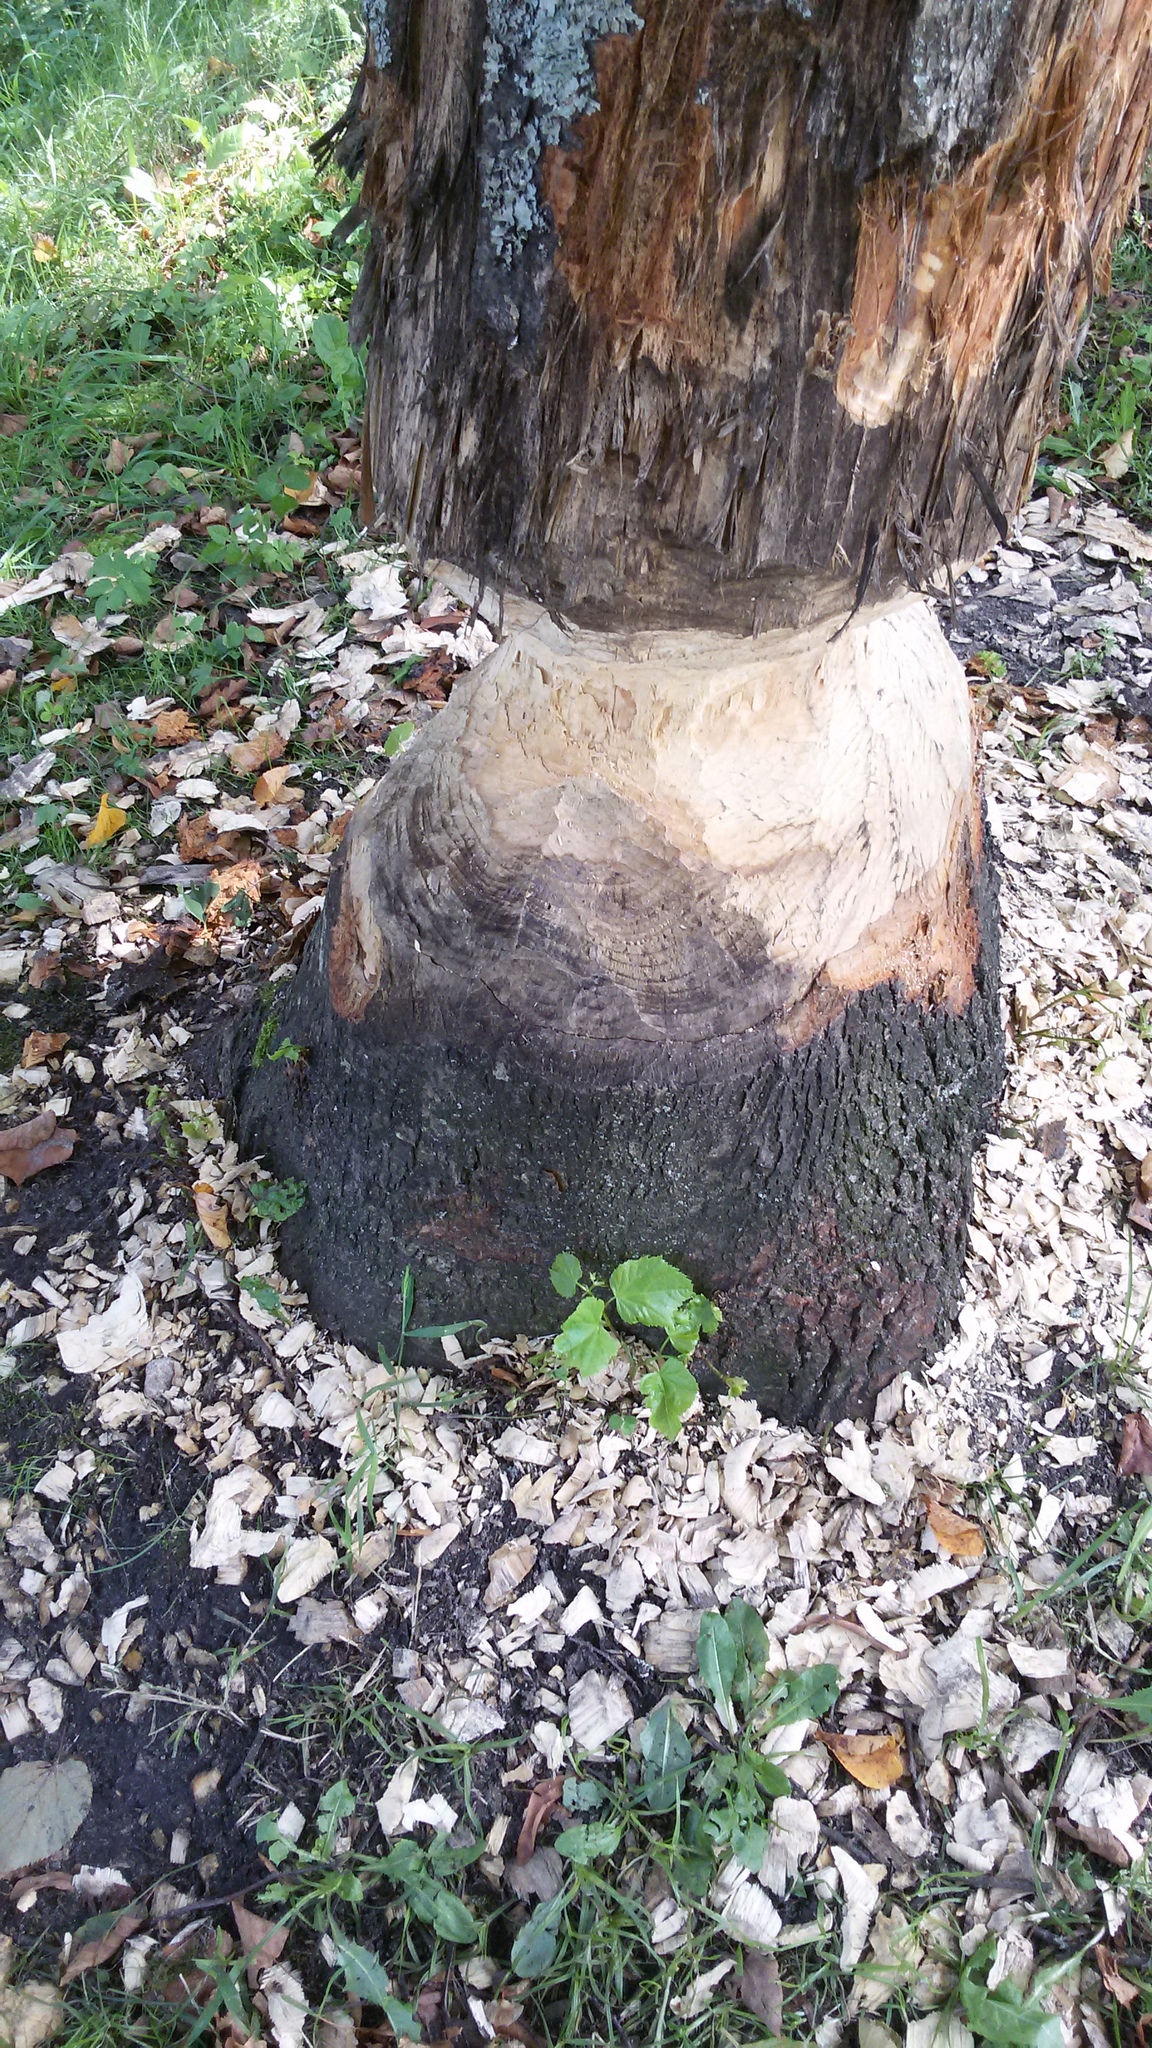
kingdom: Animalia
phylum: Chordata
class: Mammalia
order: Rodentia
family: Castoridae
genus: Castor
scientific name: Castor fiber
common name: Eurasian beaver
